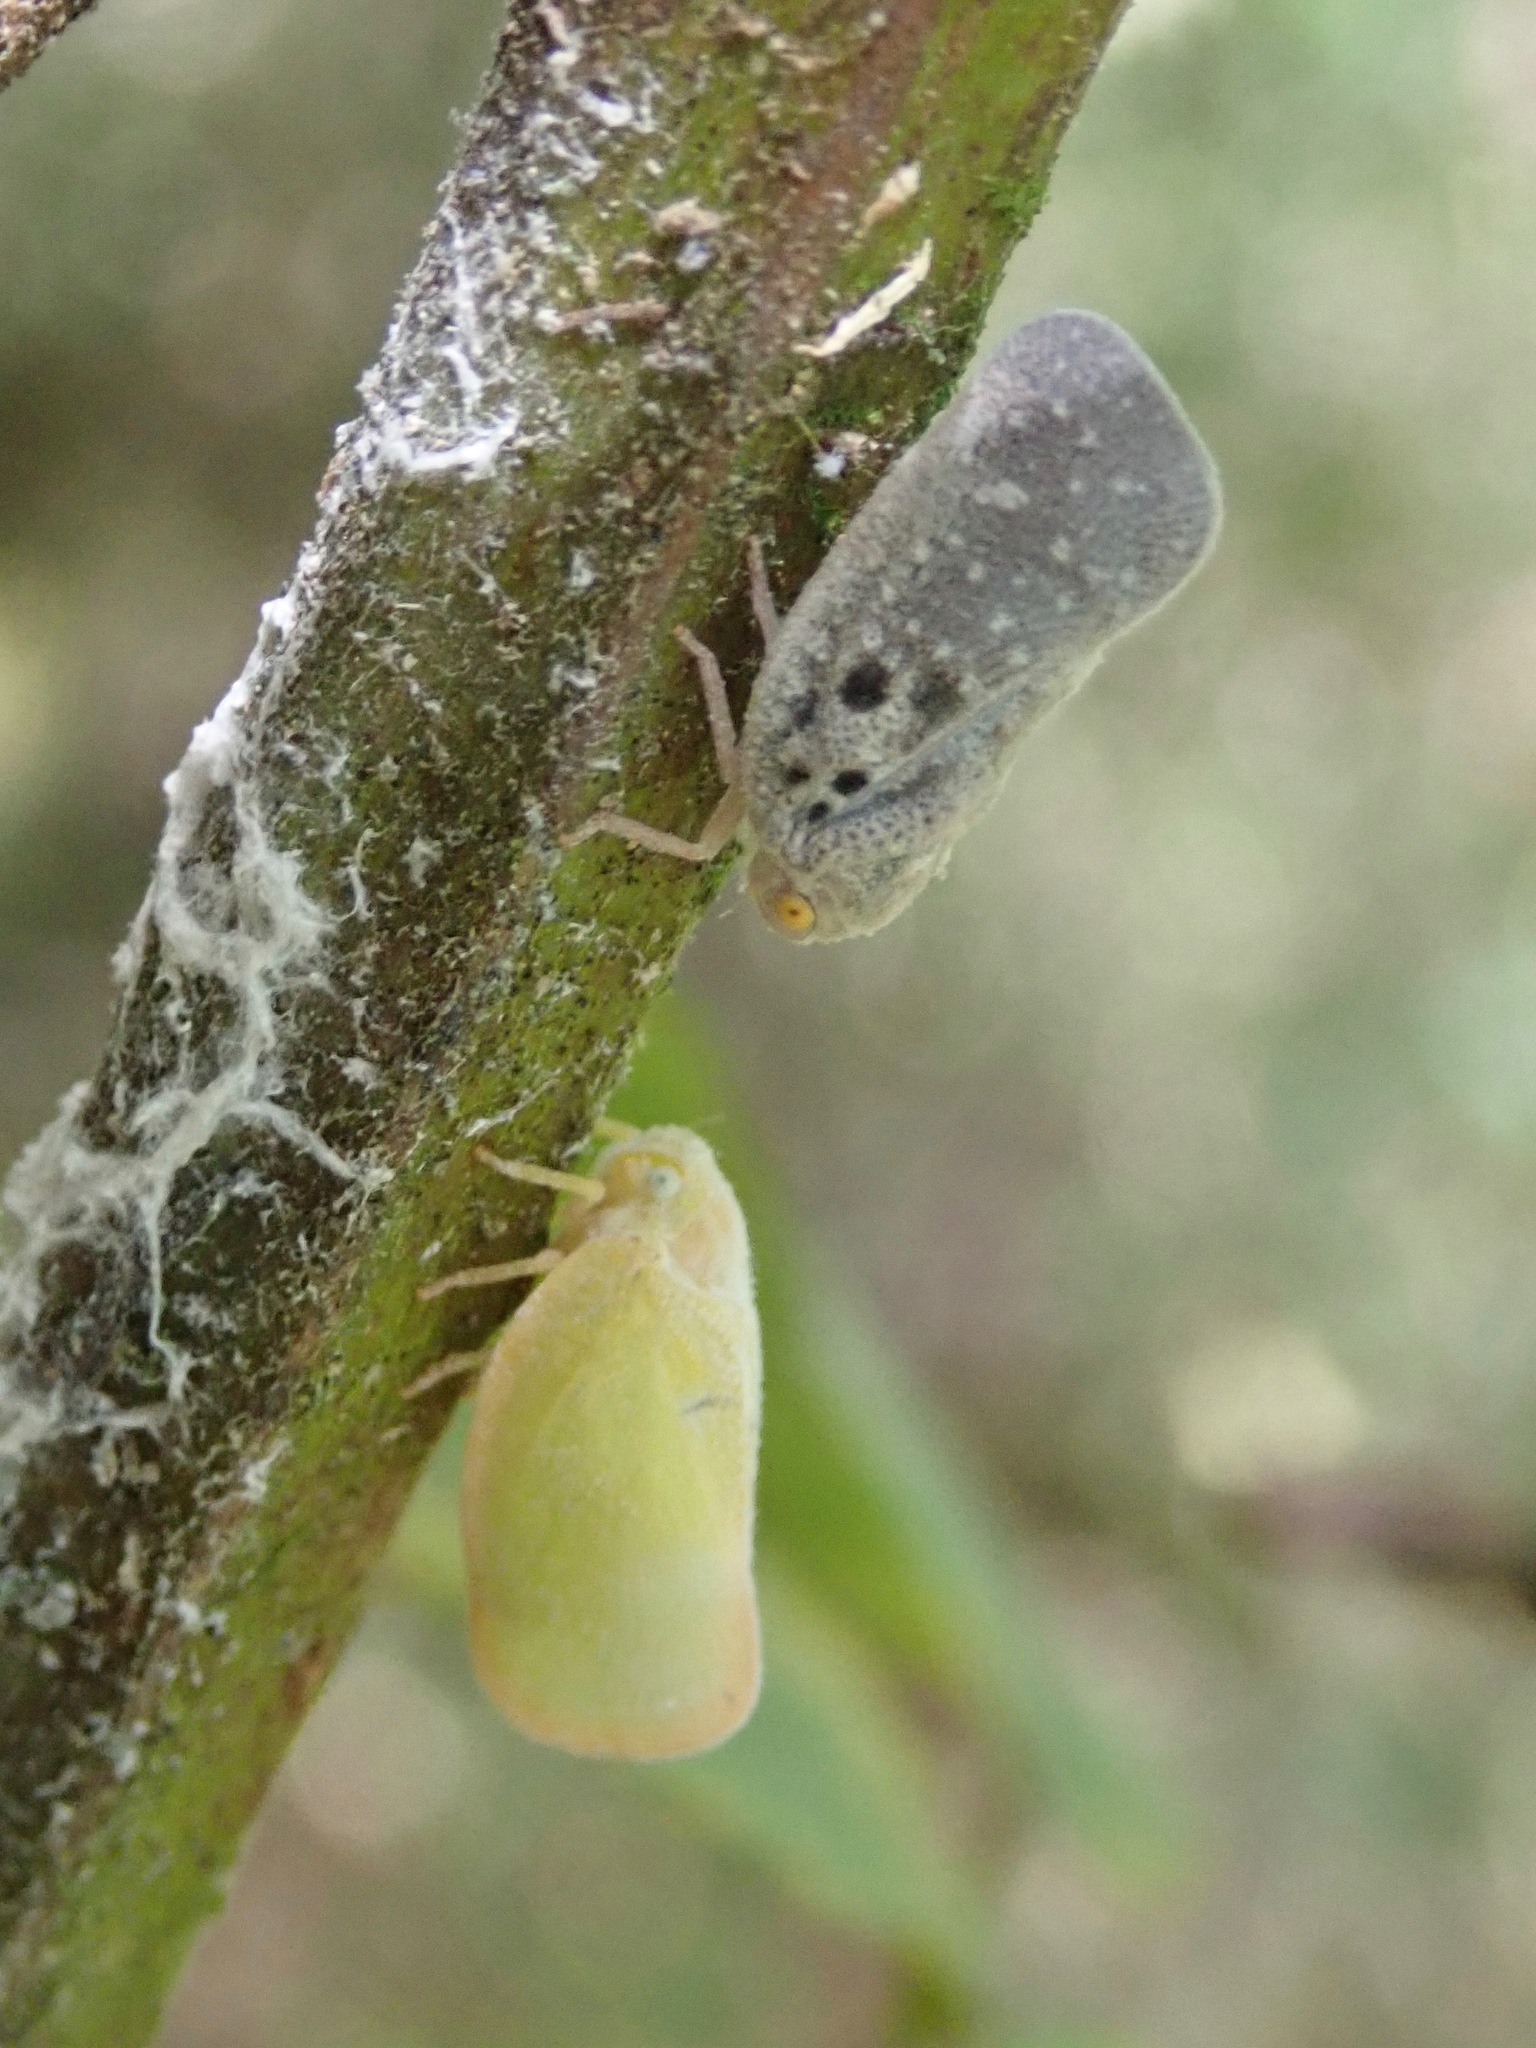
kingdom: Animalia
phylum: Arthropoda
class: Insecta
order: Hemiptera
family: Flatidae
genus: Ormenoides
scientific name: Ormenoides venusta
